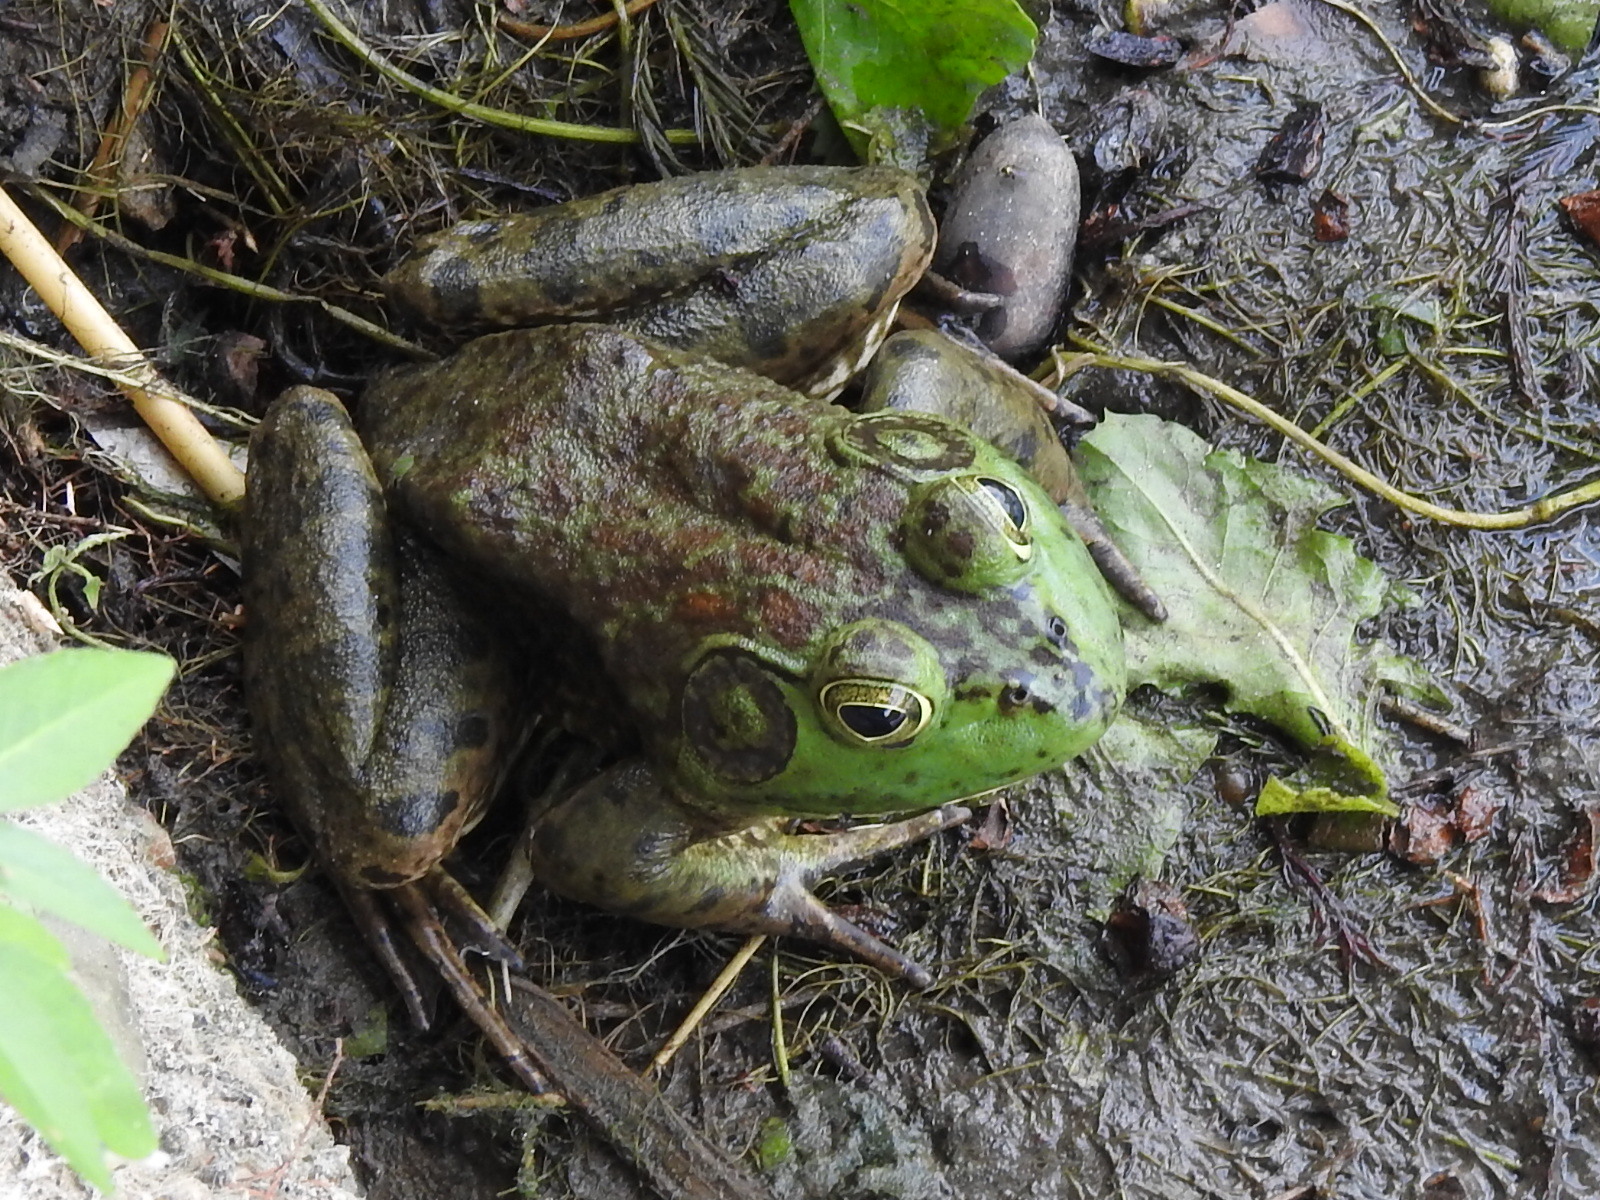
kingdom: Animalia
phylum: Chordata
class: Amphibia
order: Anura
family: Ranidae
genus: Lithobates
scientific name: Lithobates catesbeianus
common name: American bullfrog
